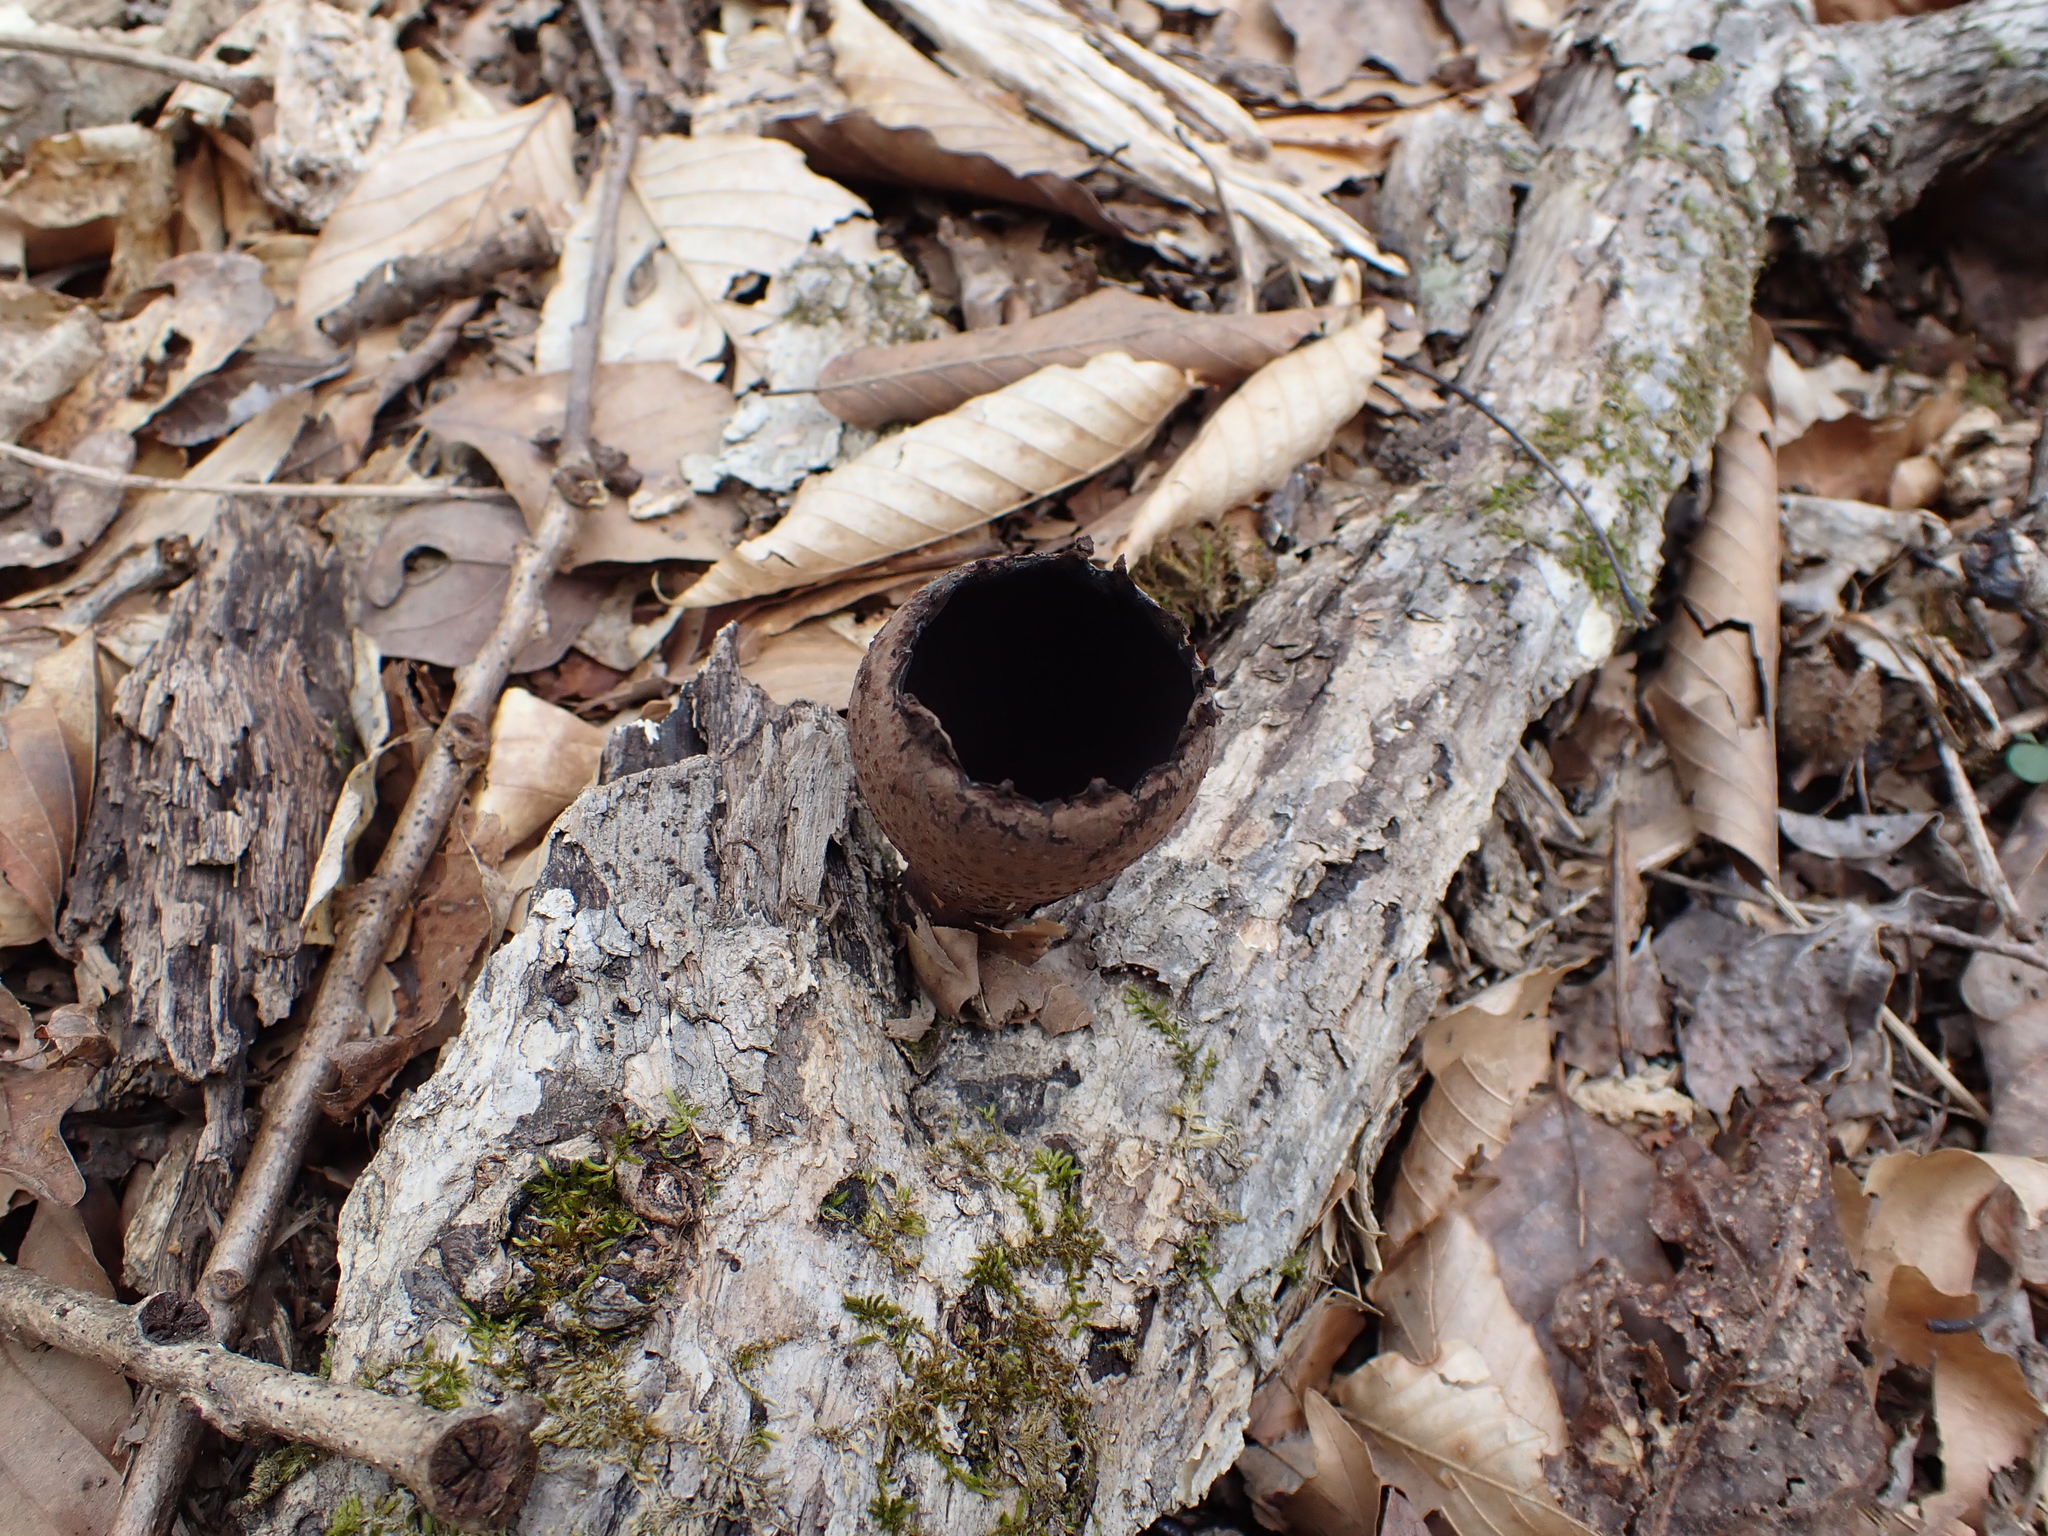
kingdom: Fungi
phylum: Ascomycota
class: Pezizomycetes
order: Pezizales
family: Sarcosomataceae
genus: Urnula
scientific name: Urnula craterium
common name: Devil's urn
